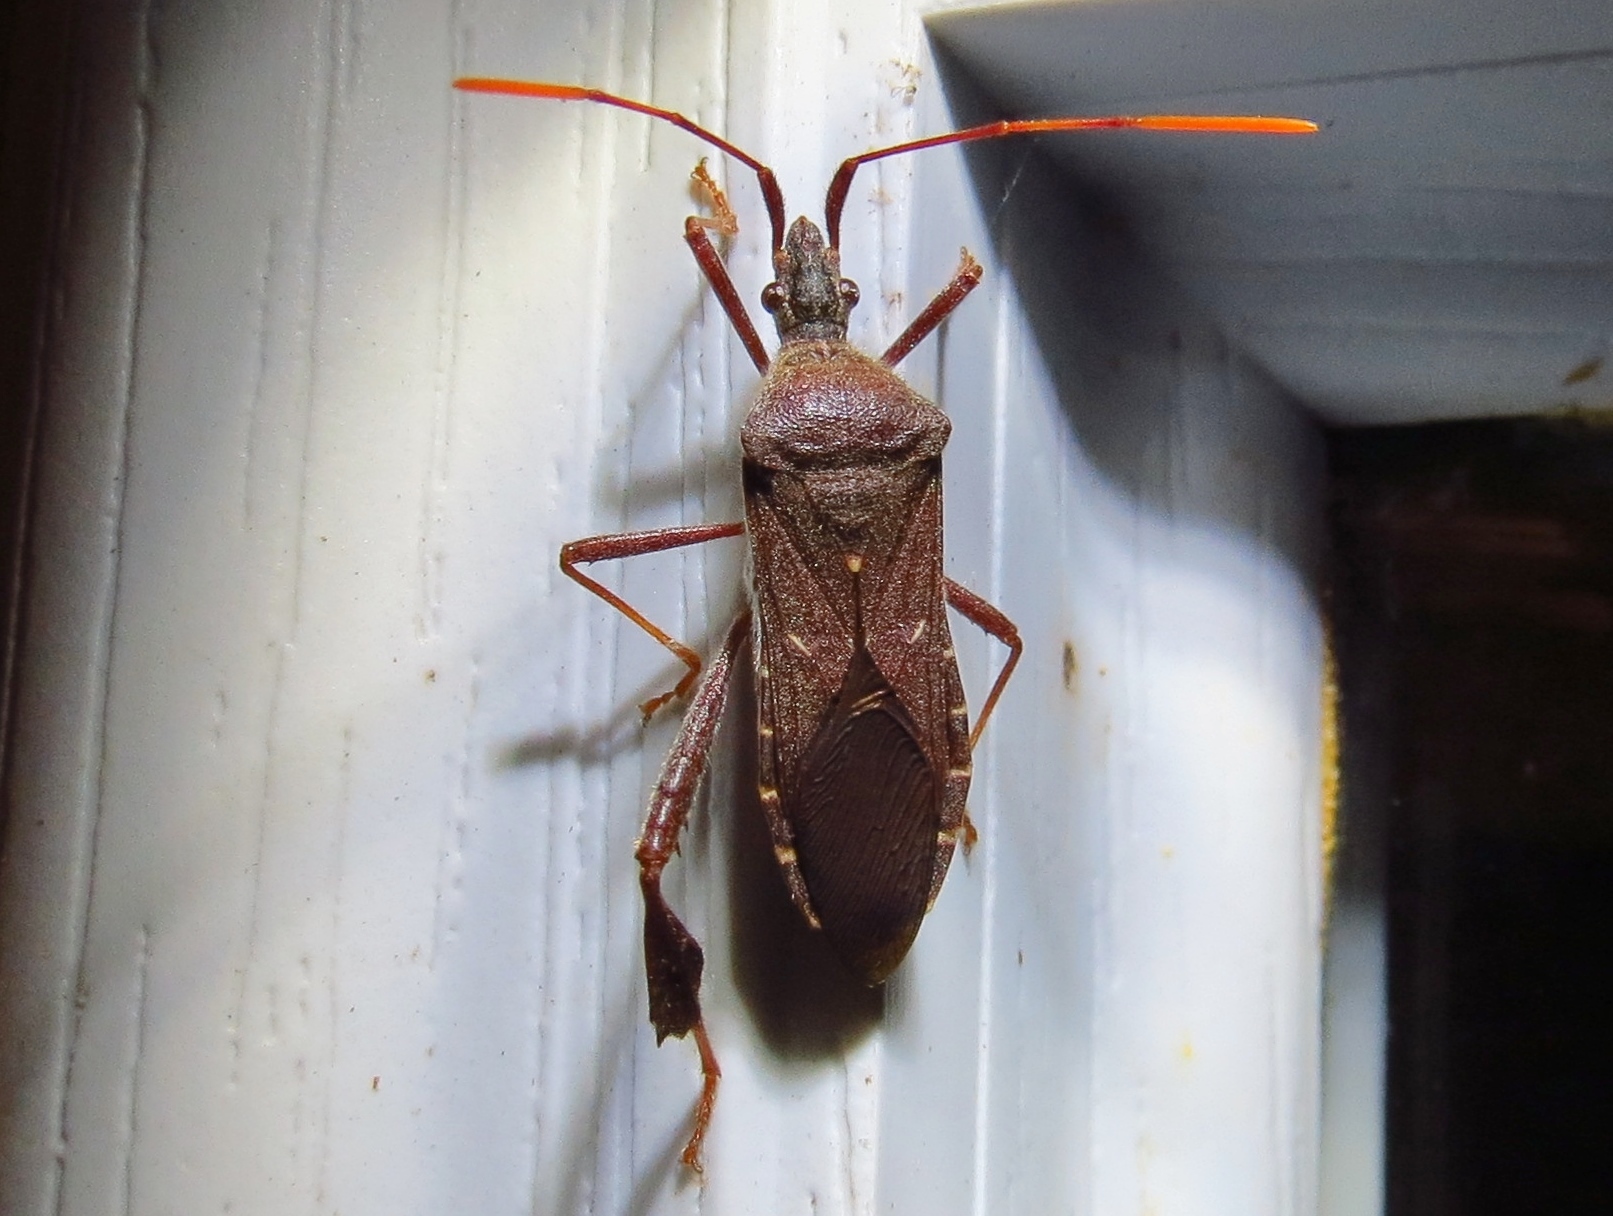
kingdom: Animalia
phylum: Arthropoda
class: Insecta
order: Hemiptera
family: Coreidae
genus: Leptoglossus
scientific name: Leptoglossus oppositus
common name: Northern leaf-footed bug
